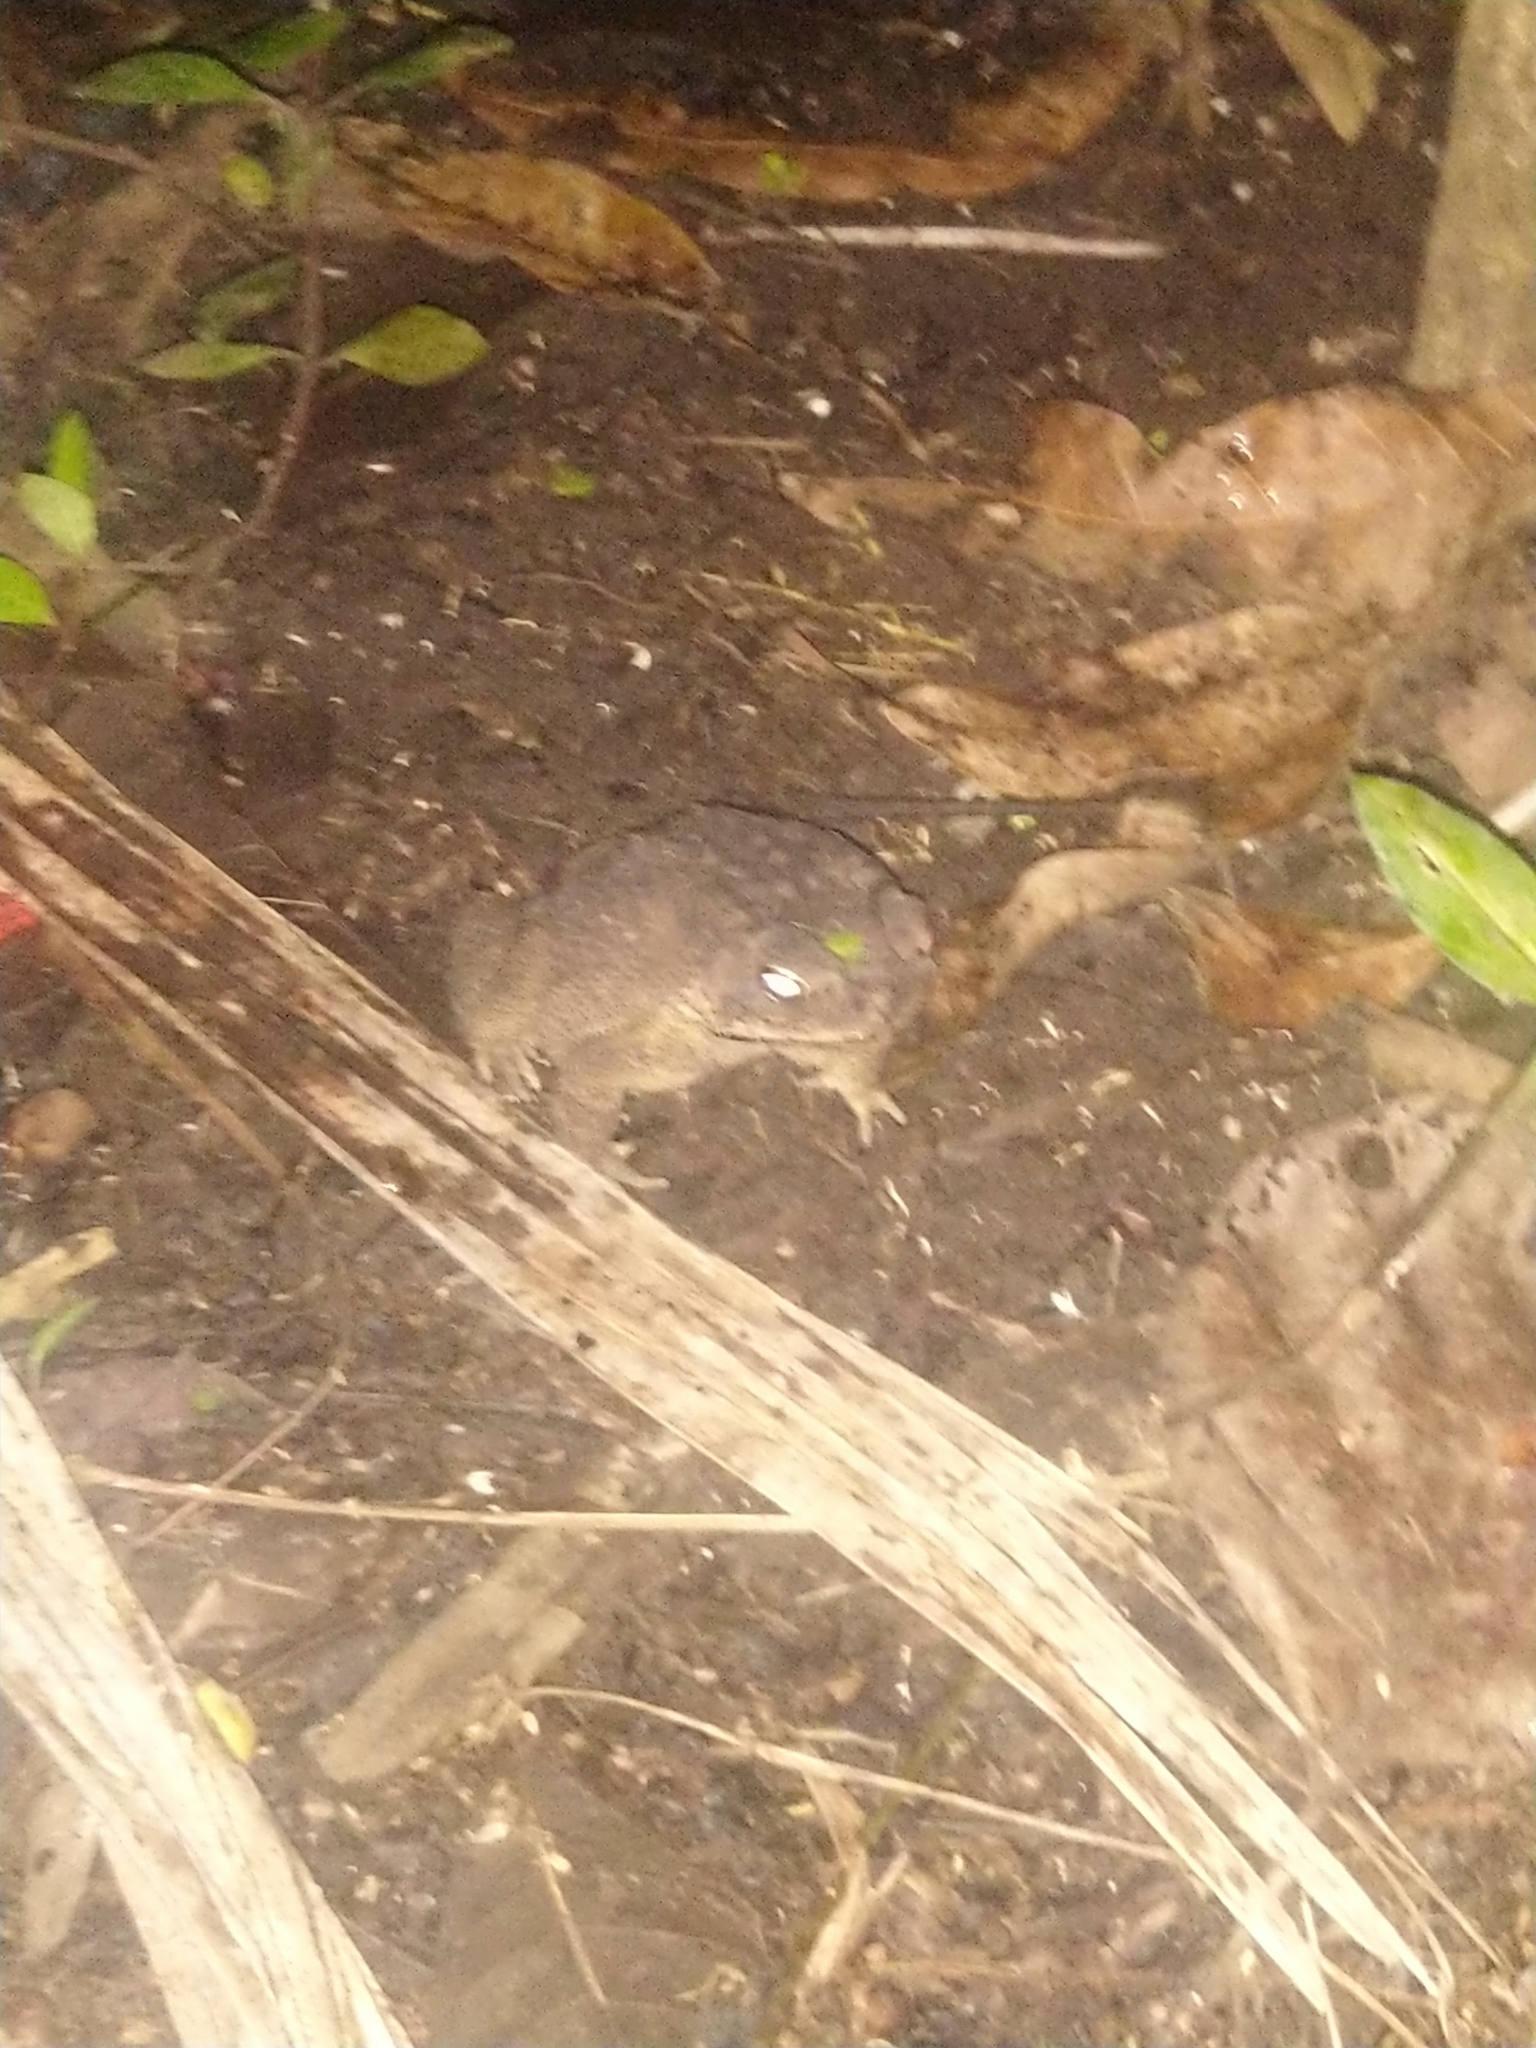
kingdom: Animalia
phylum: Chordata
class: Amphibia
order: Anura
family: Bufonidae
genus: Duttaphrynus
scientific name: Duttaphrynus melanostictus
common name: Common sunda toad
